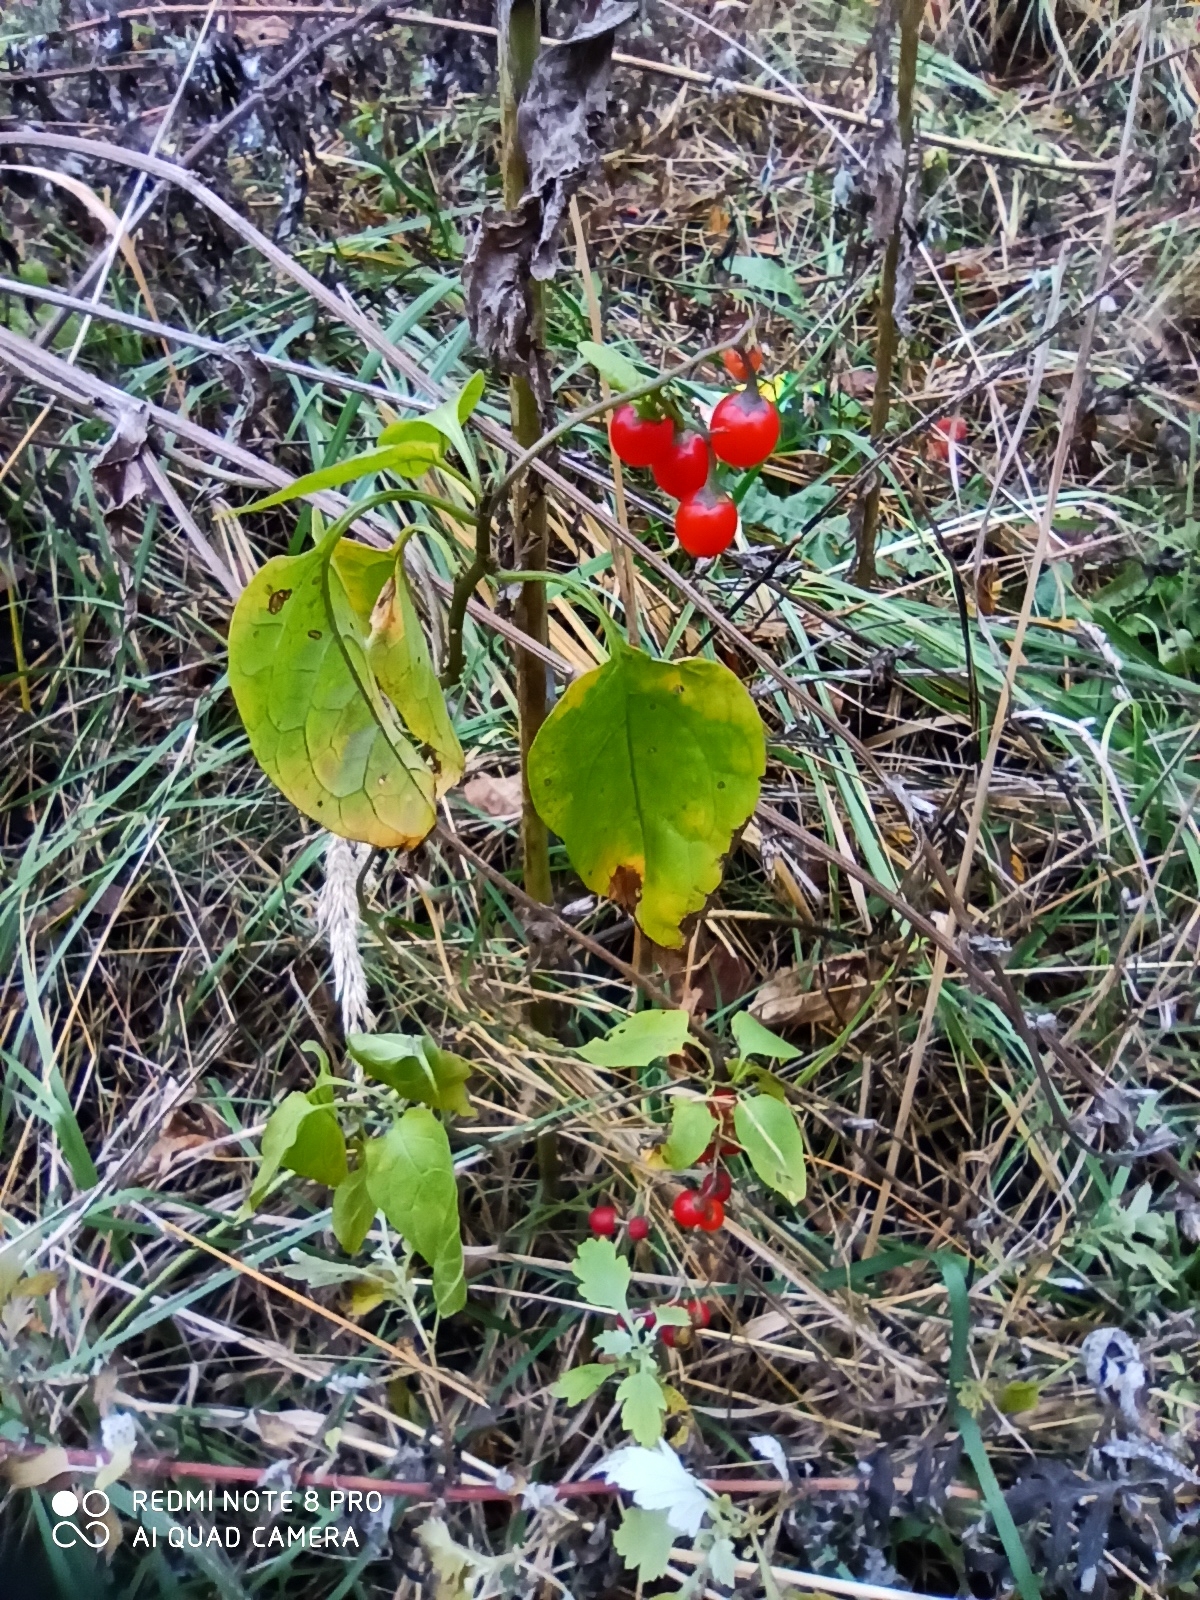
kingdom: Plantae
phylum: Tracheophyta
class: Magnoliopsida
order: Solanales
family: Solanaceae
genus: Solanum
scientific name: Solanum dulcamara
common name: Climbing nightshade
